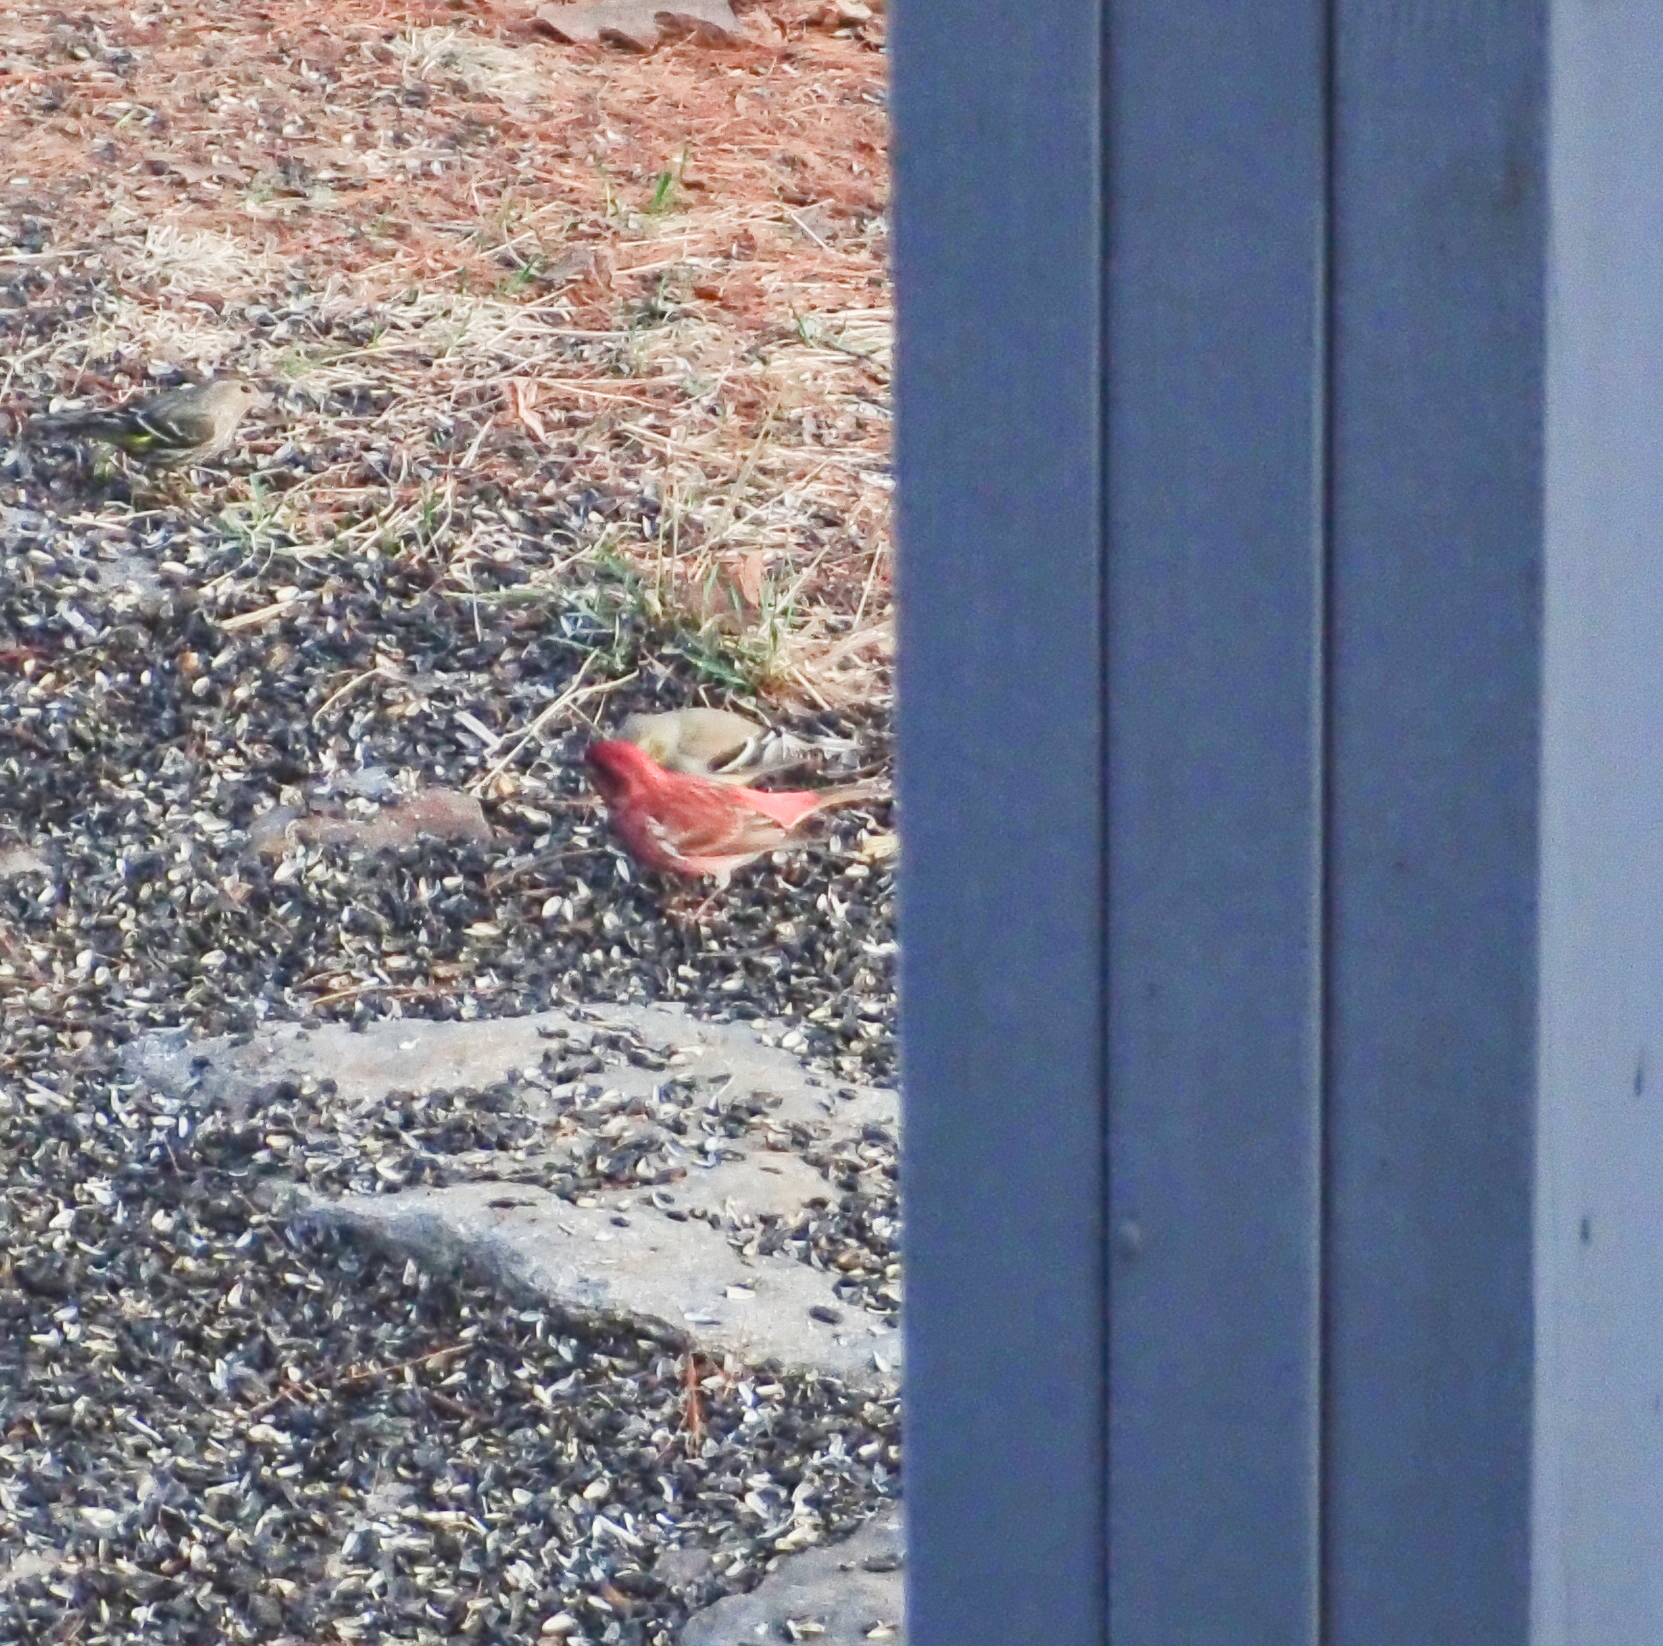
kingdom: Animalia
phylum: Chordata
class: Aves
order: Passeriformes
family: Fringillidae
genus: Haemorhous
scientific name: Haemorhous purpureus
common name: Purple finch
